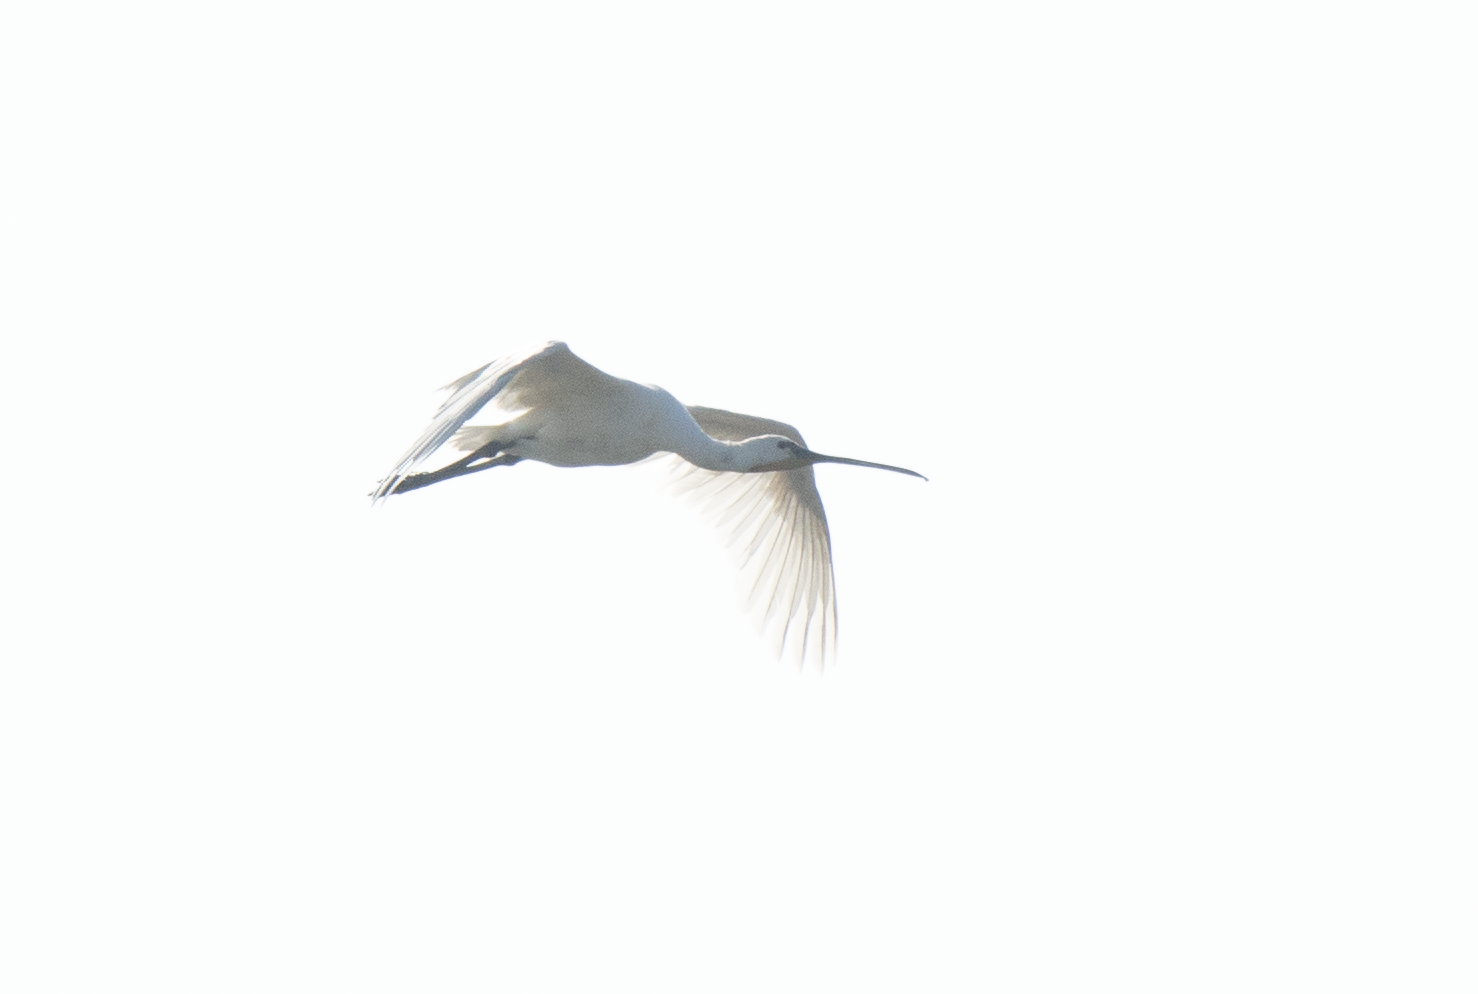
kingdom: Animalia
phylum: Chordata
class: Aves
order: Pelecaniformes
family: Threskiornithidae
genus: Platalea
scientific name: Platalea leucorodia
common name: Eurasian spoonbill
